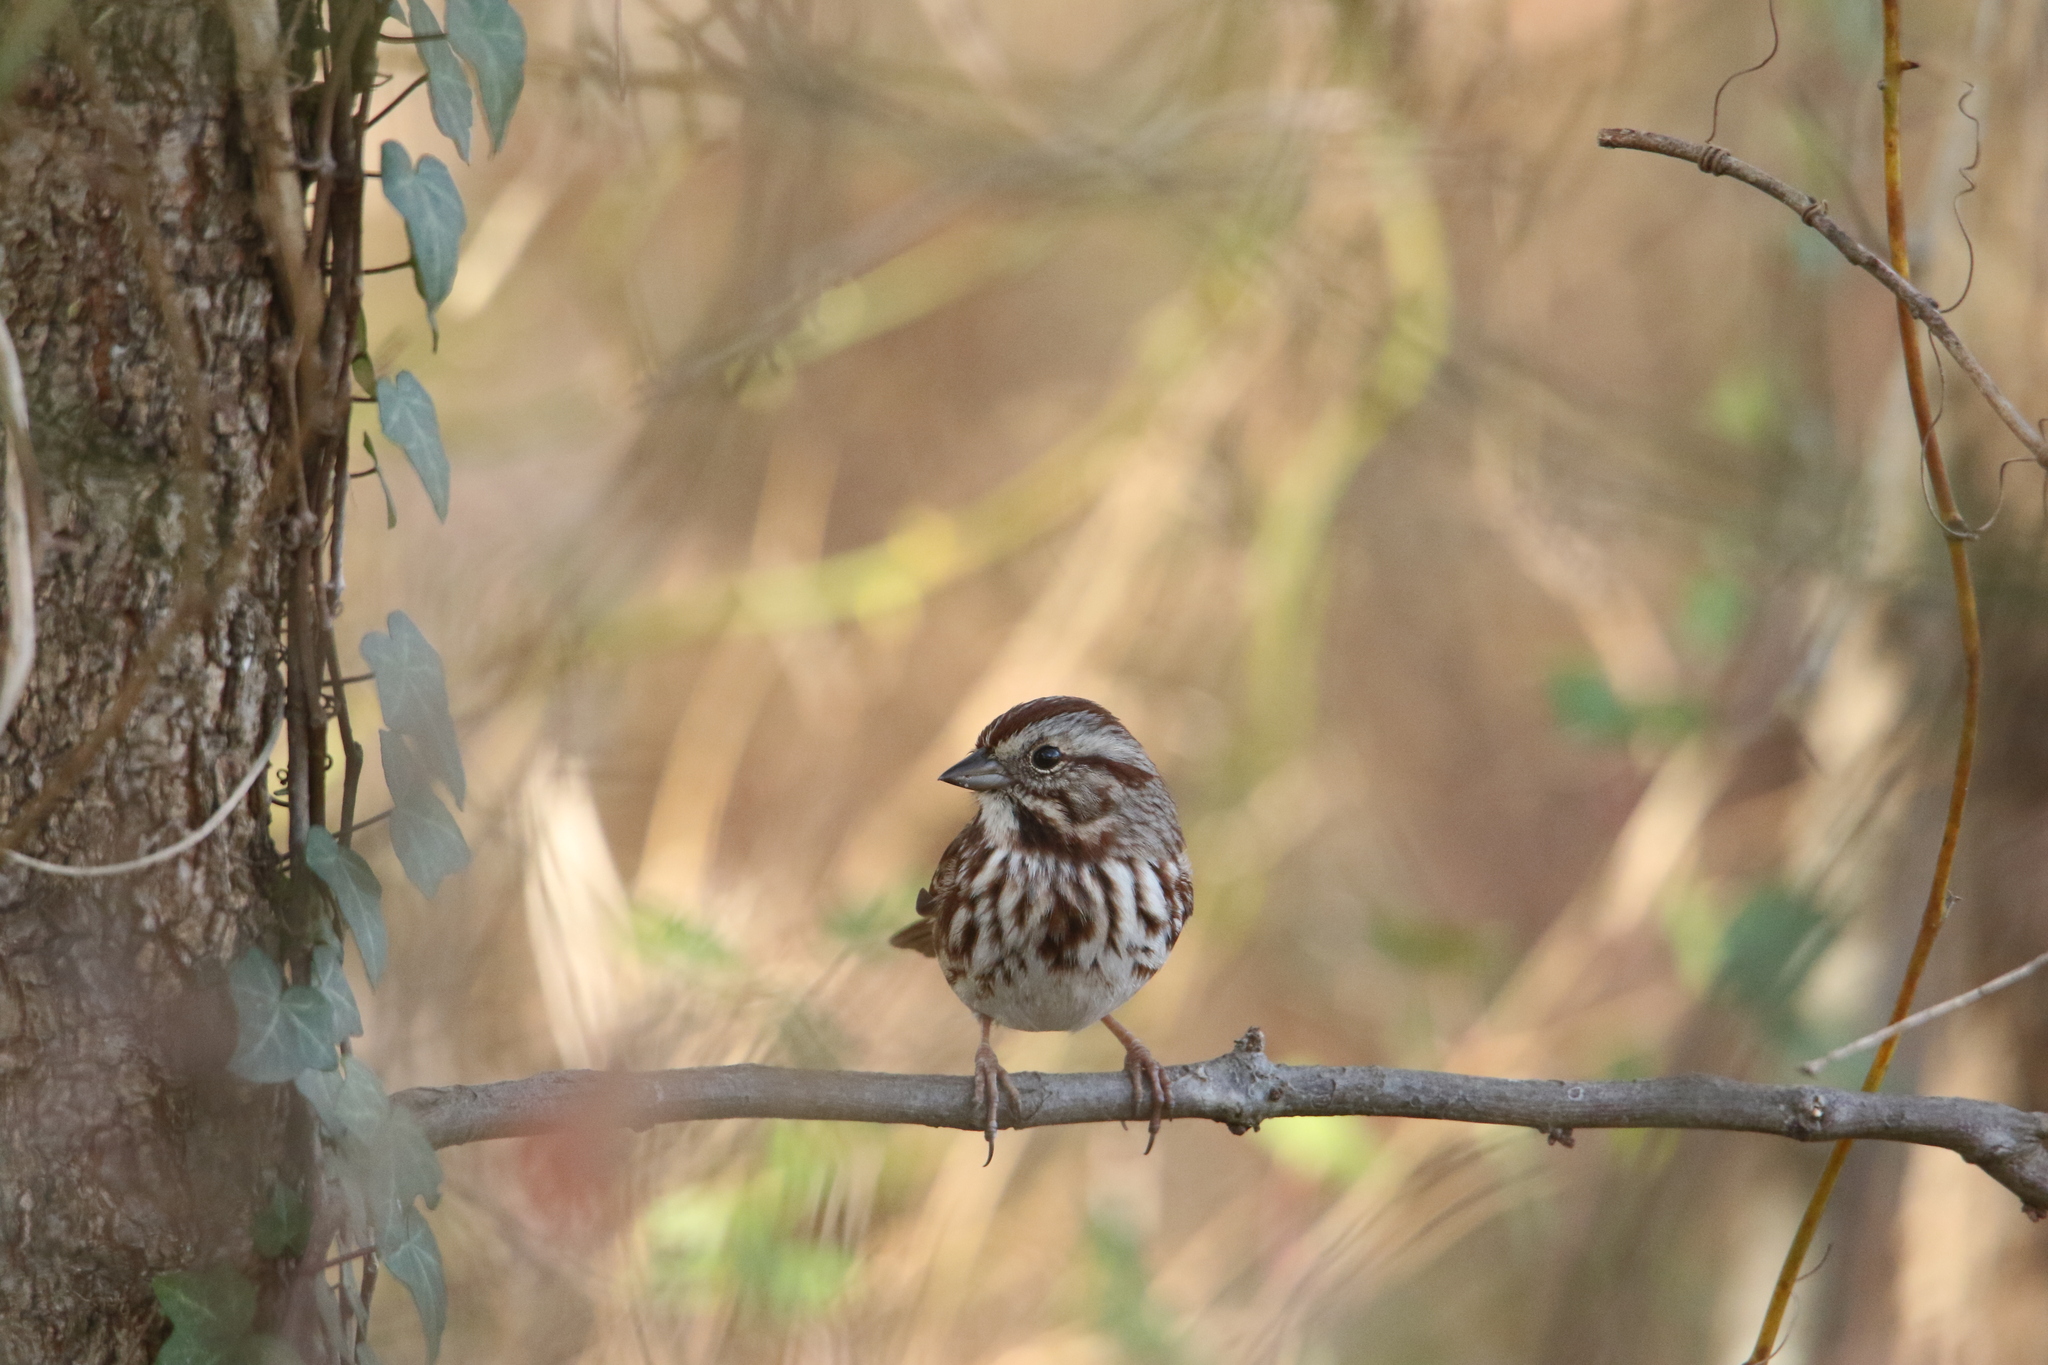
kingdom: Animalia
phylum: Chordata
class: Aves
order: Passeriformes
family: Passerellidae
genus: Melospiza
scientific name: Melospiza melodia
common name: Song sparrow
